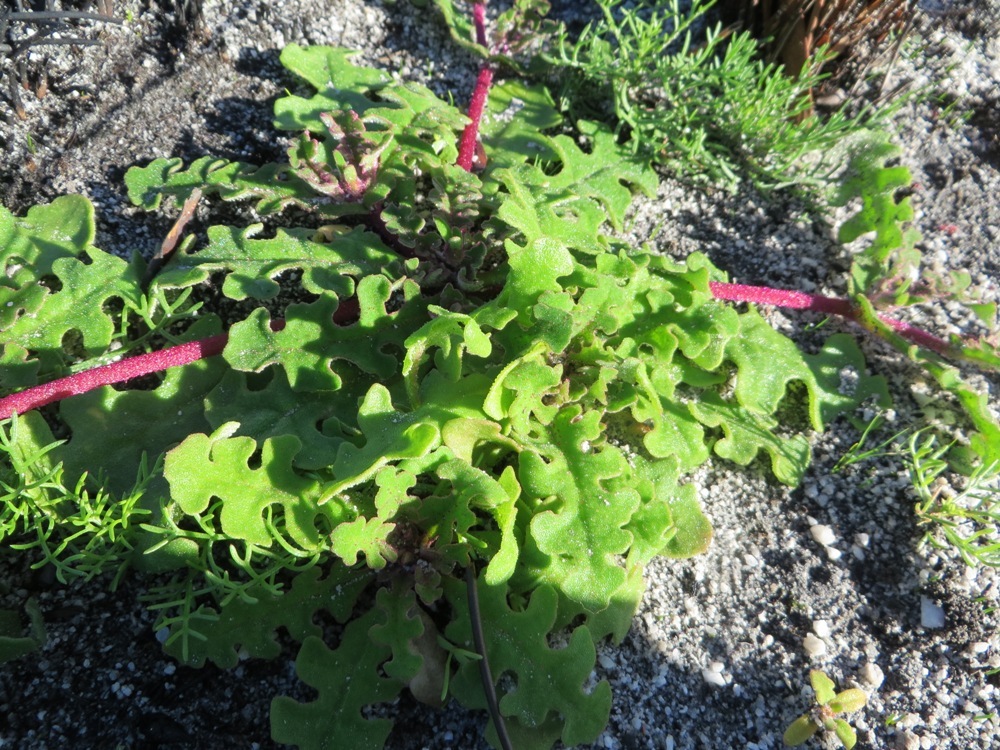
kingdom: Plantae
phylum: Tracheophyta
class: Magnoliopsida
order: Caryophyllales
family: Aizoaceae
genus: Cleretum
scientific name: Cleretum herrei
